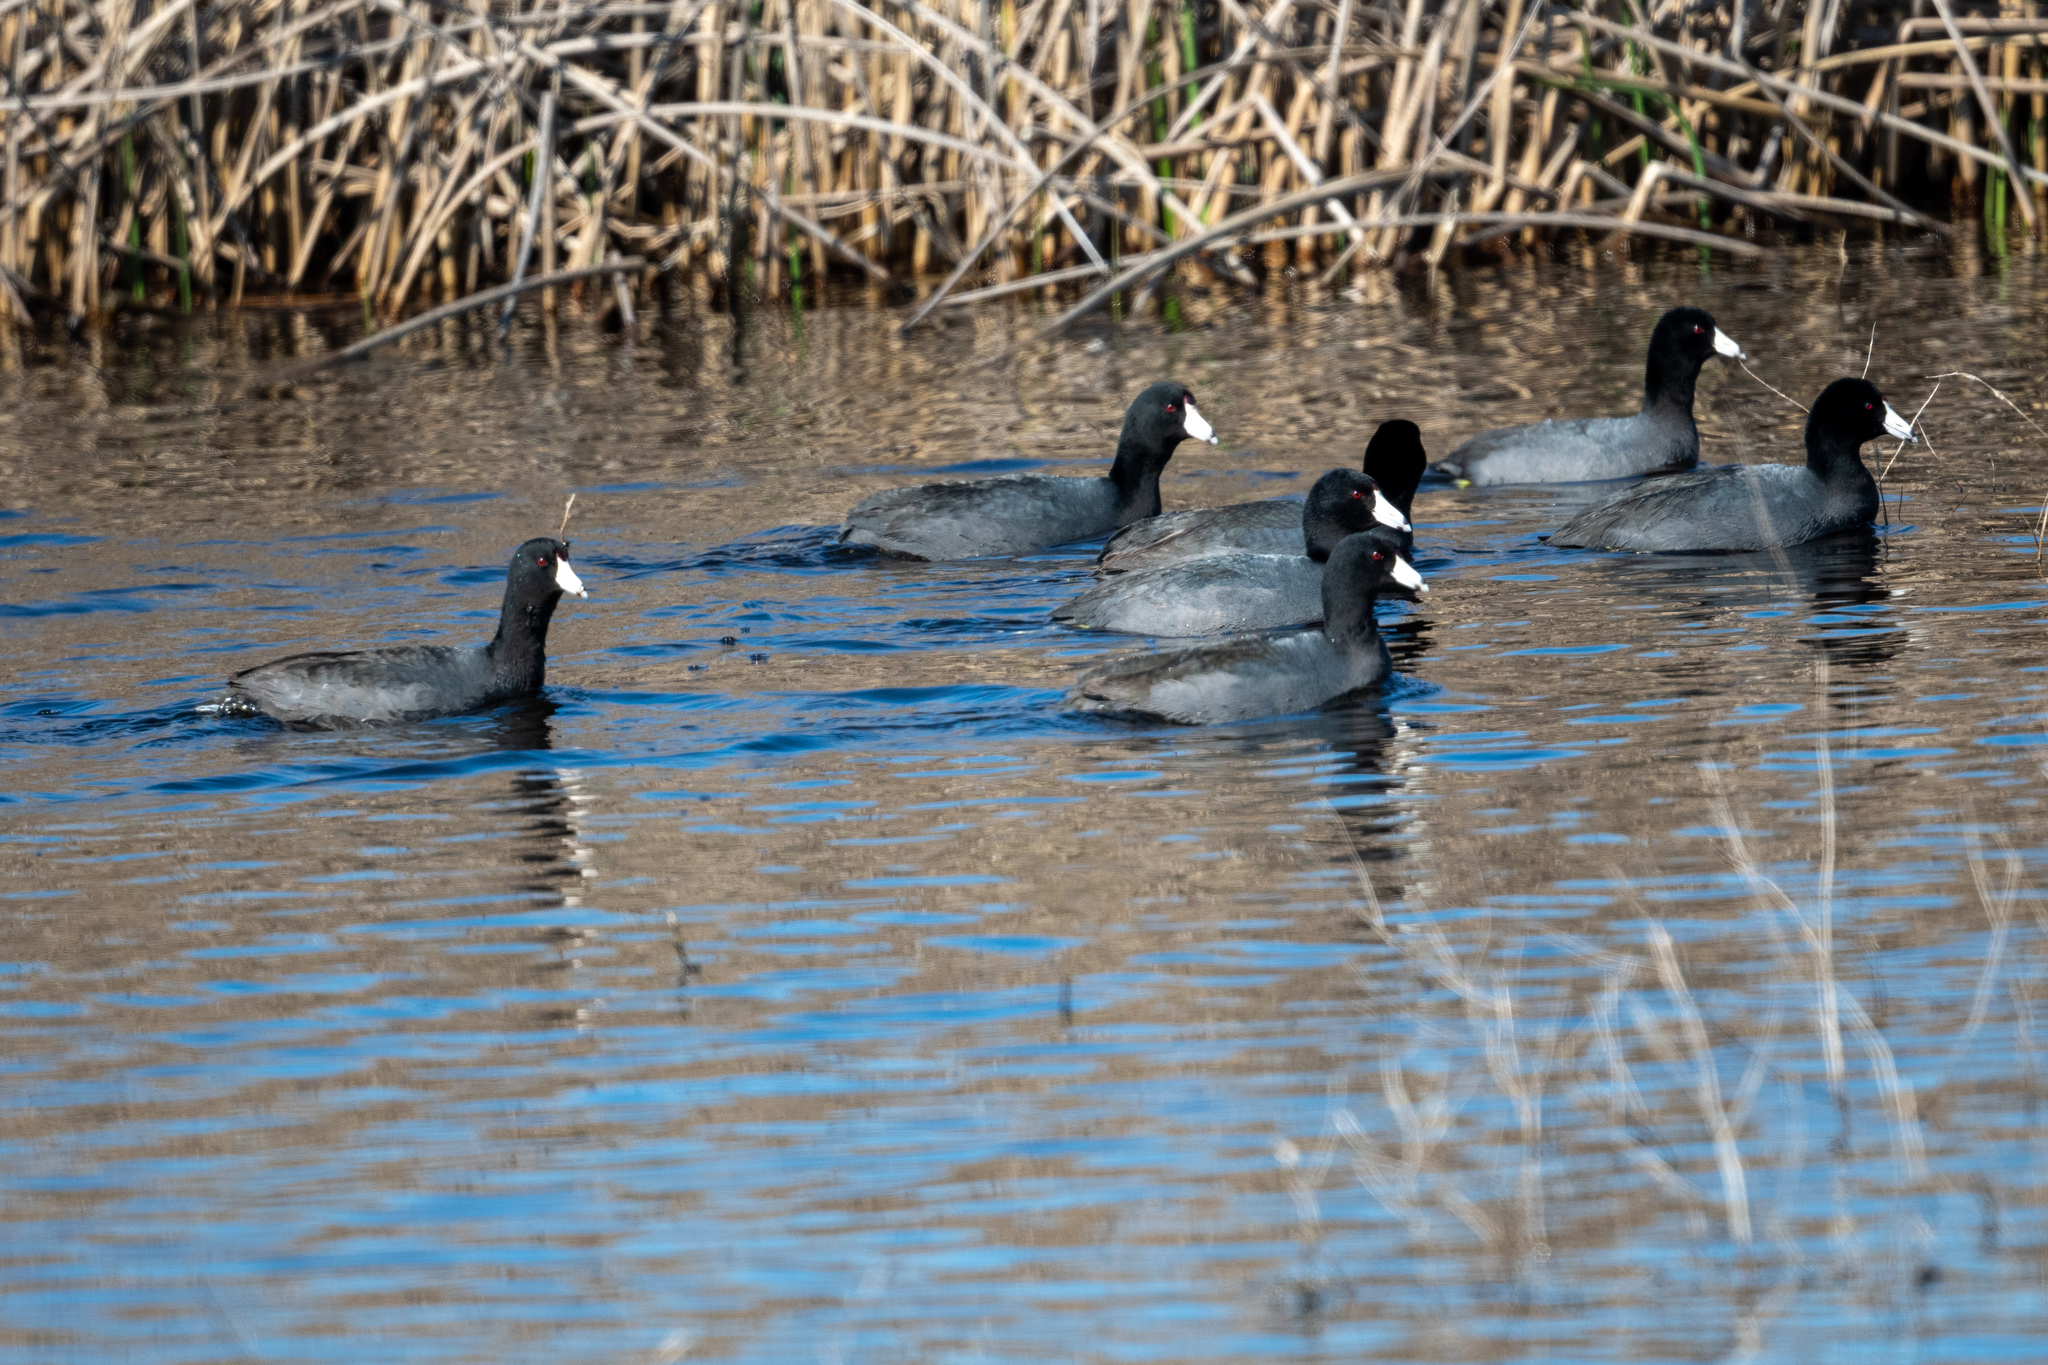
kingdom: Animalia
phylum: Chordata
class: Aves
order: Gruiformes
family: Rallidae
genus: Fulica
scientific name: Fulica americana
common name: American coot
